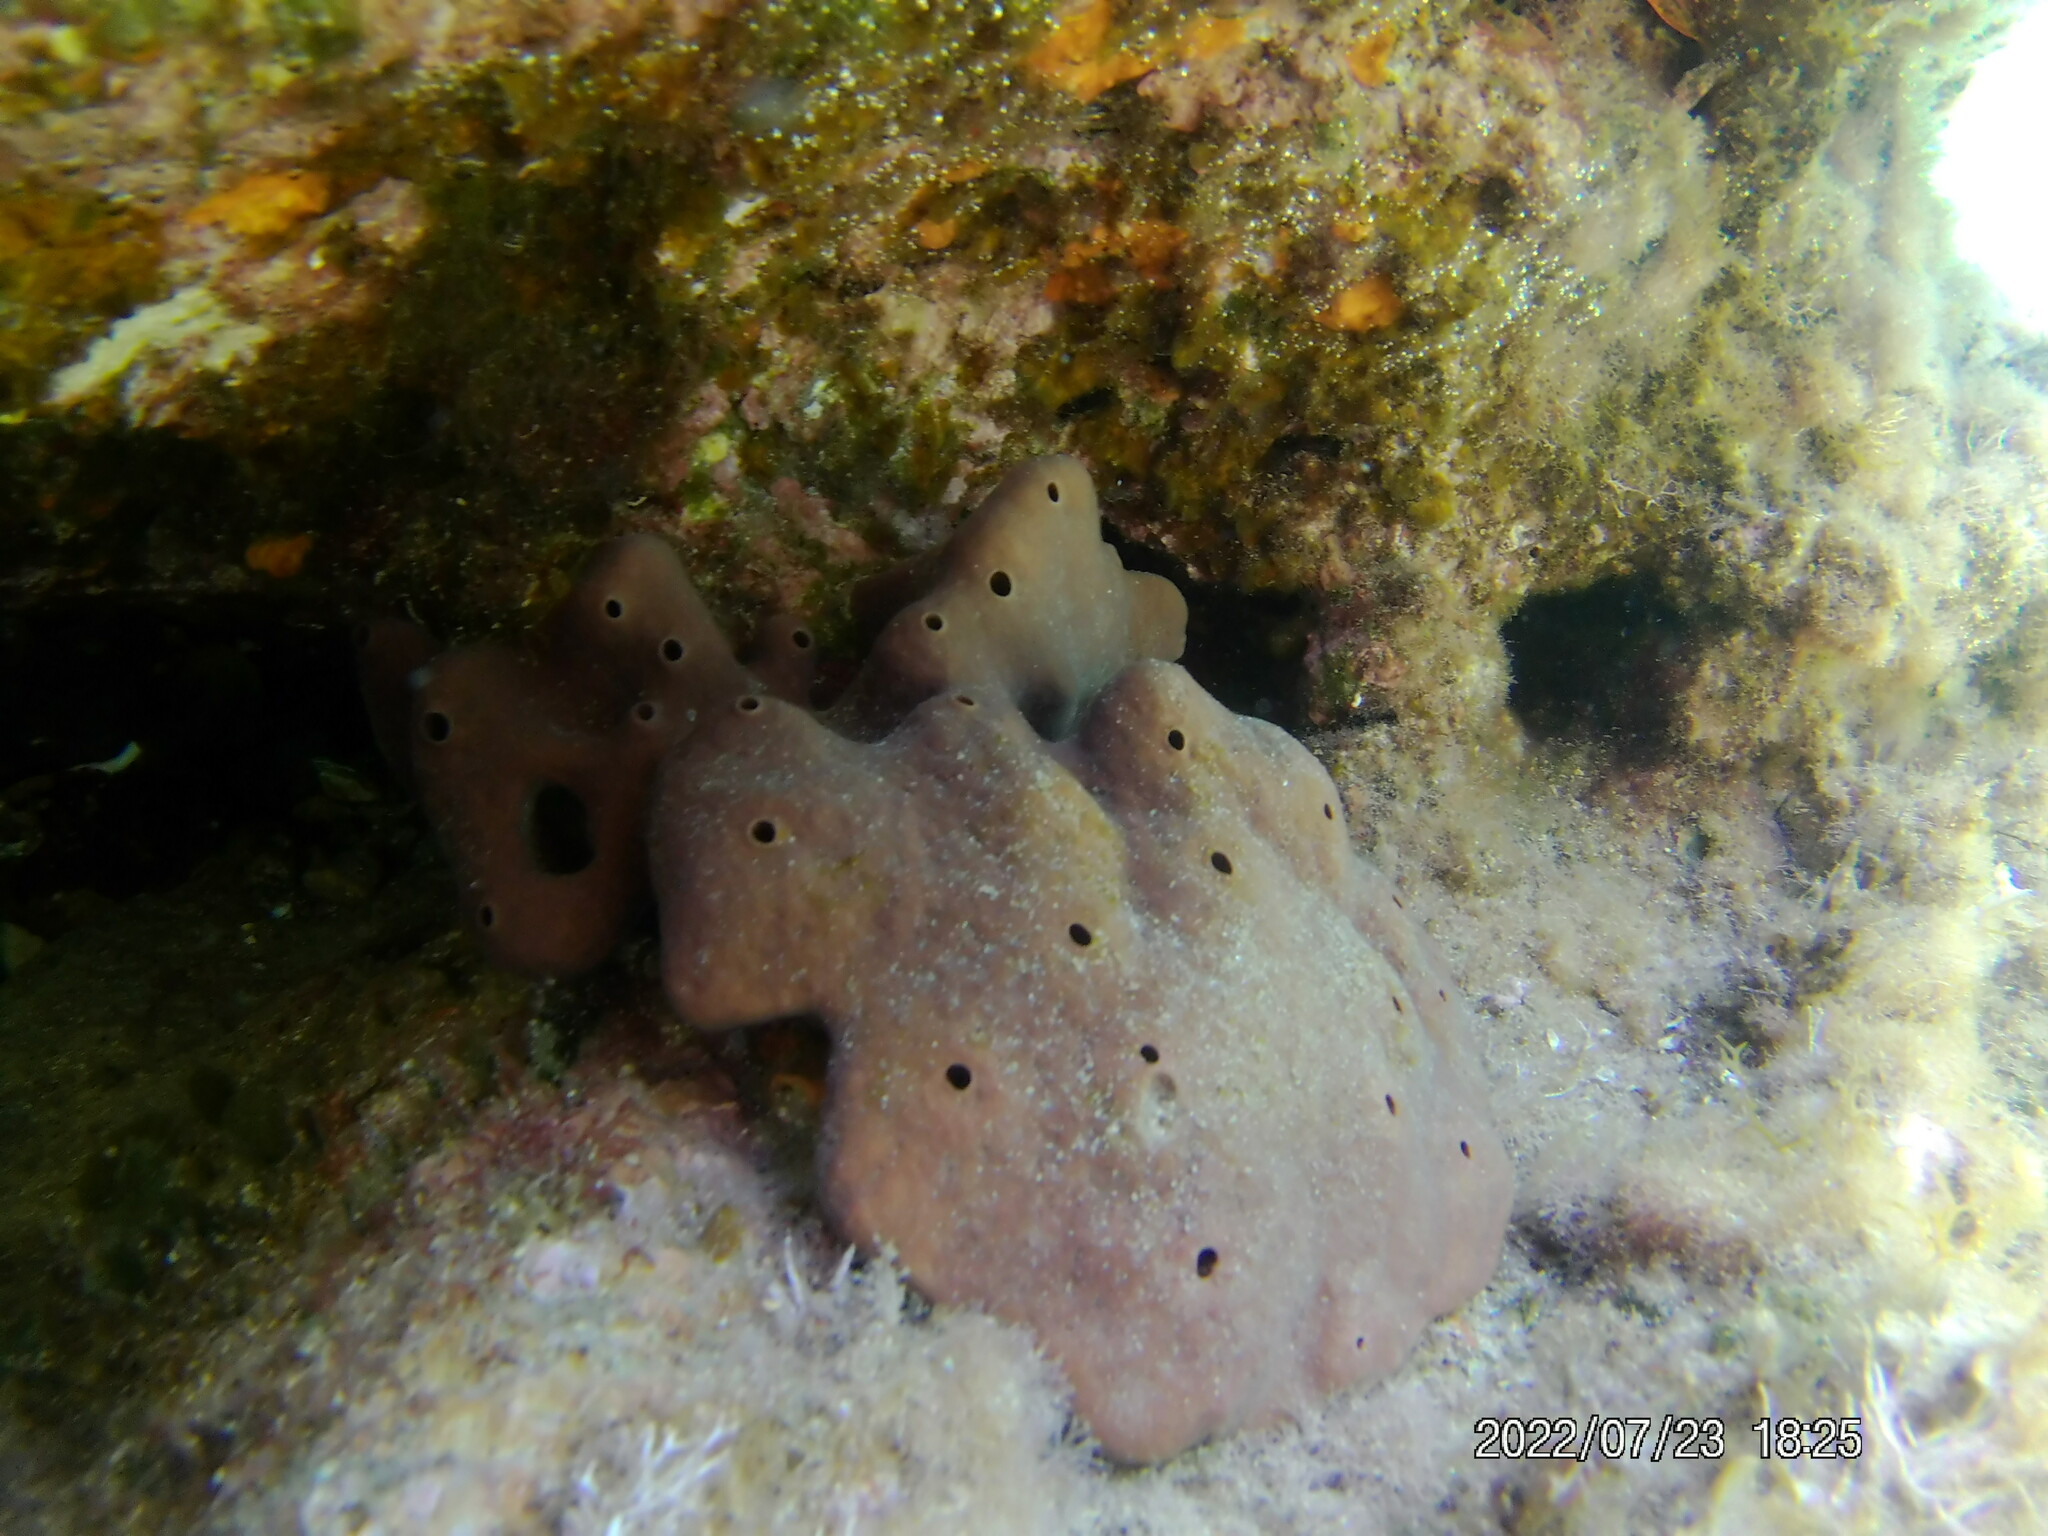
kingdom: Animalia
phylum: Porifera
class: Demospongiae
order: Haplosclerida
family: Petrosiidae
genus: Petrosia
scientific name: Petrosia ficiformis
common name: Stony sponge
